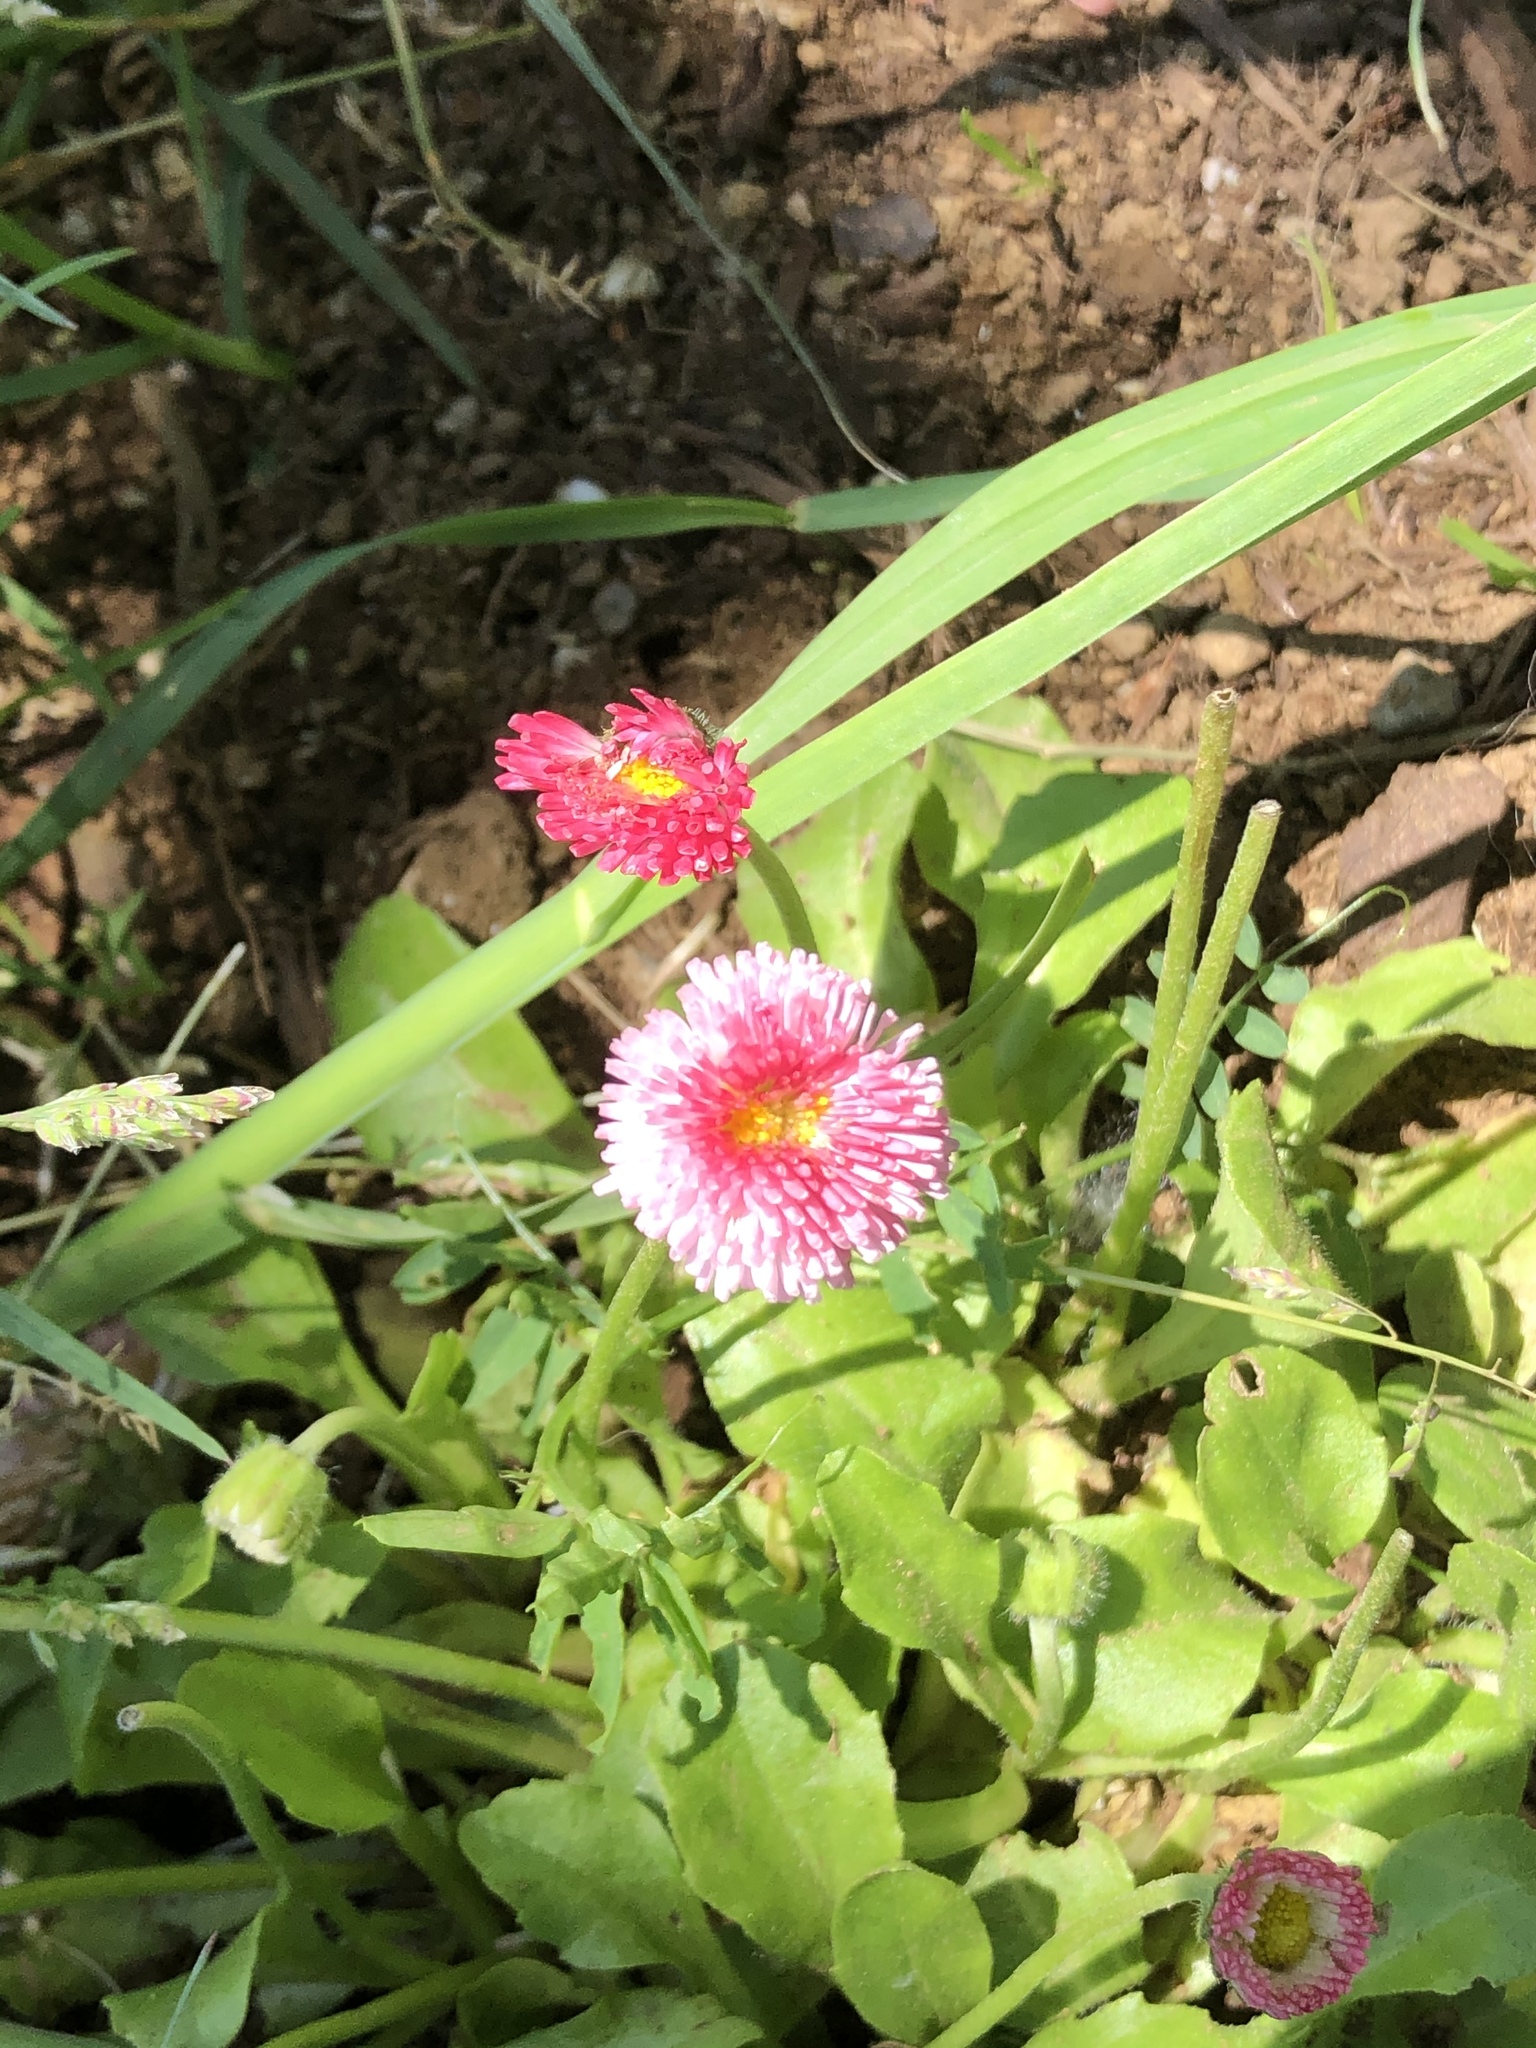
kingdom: Plantae
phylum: Tracheophyta
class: Magnoliopsida
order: Asterales
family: Asteraceae
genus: Bellis
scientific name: Bellis perennis
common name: Lawndaisy
